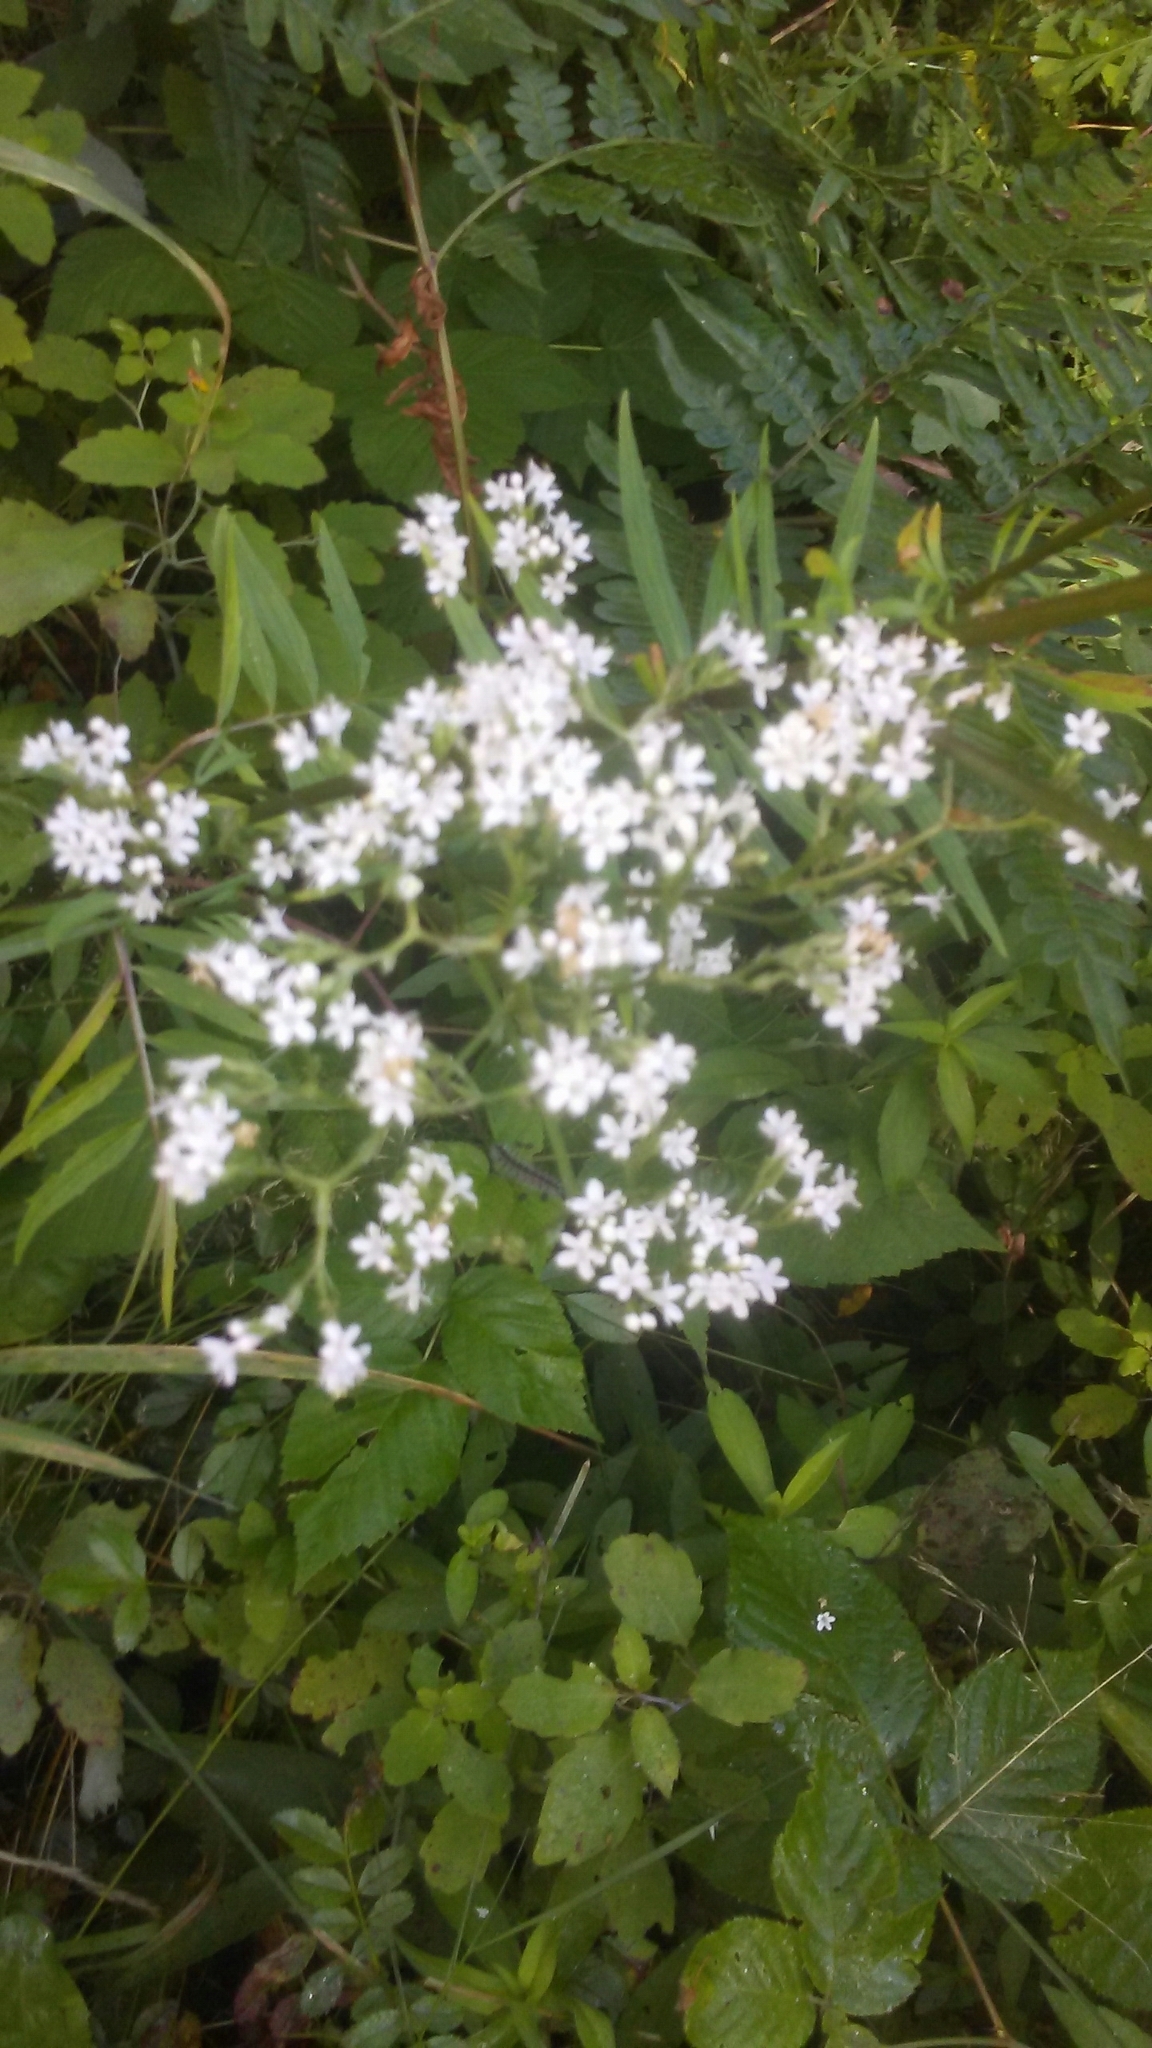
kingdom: Plantae
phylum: Tracheophyta
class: Magnoliopsida
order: Dipsacales
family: Caprifoliaceae
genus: Valeriana
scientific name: Valeriana officinalis
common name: Common valerian
